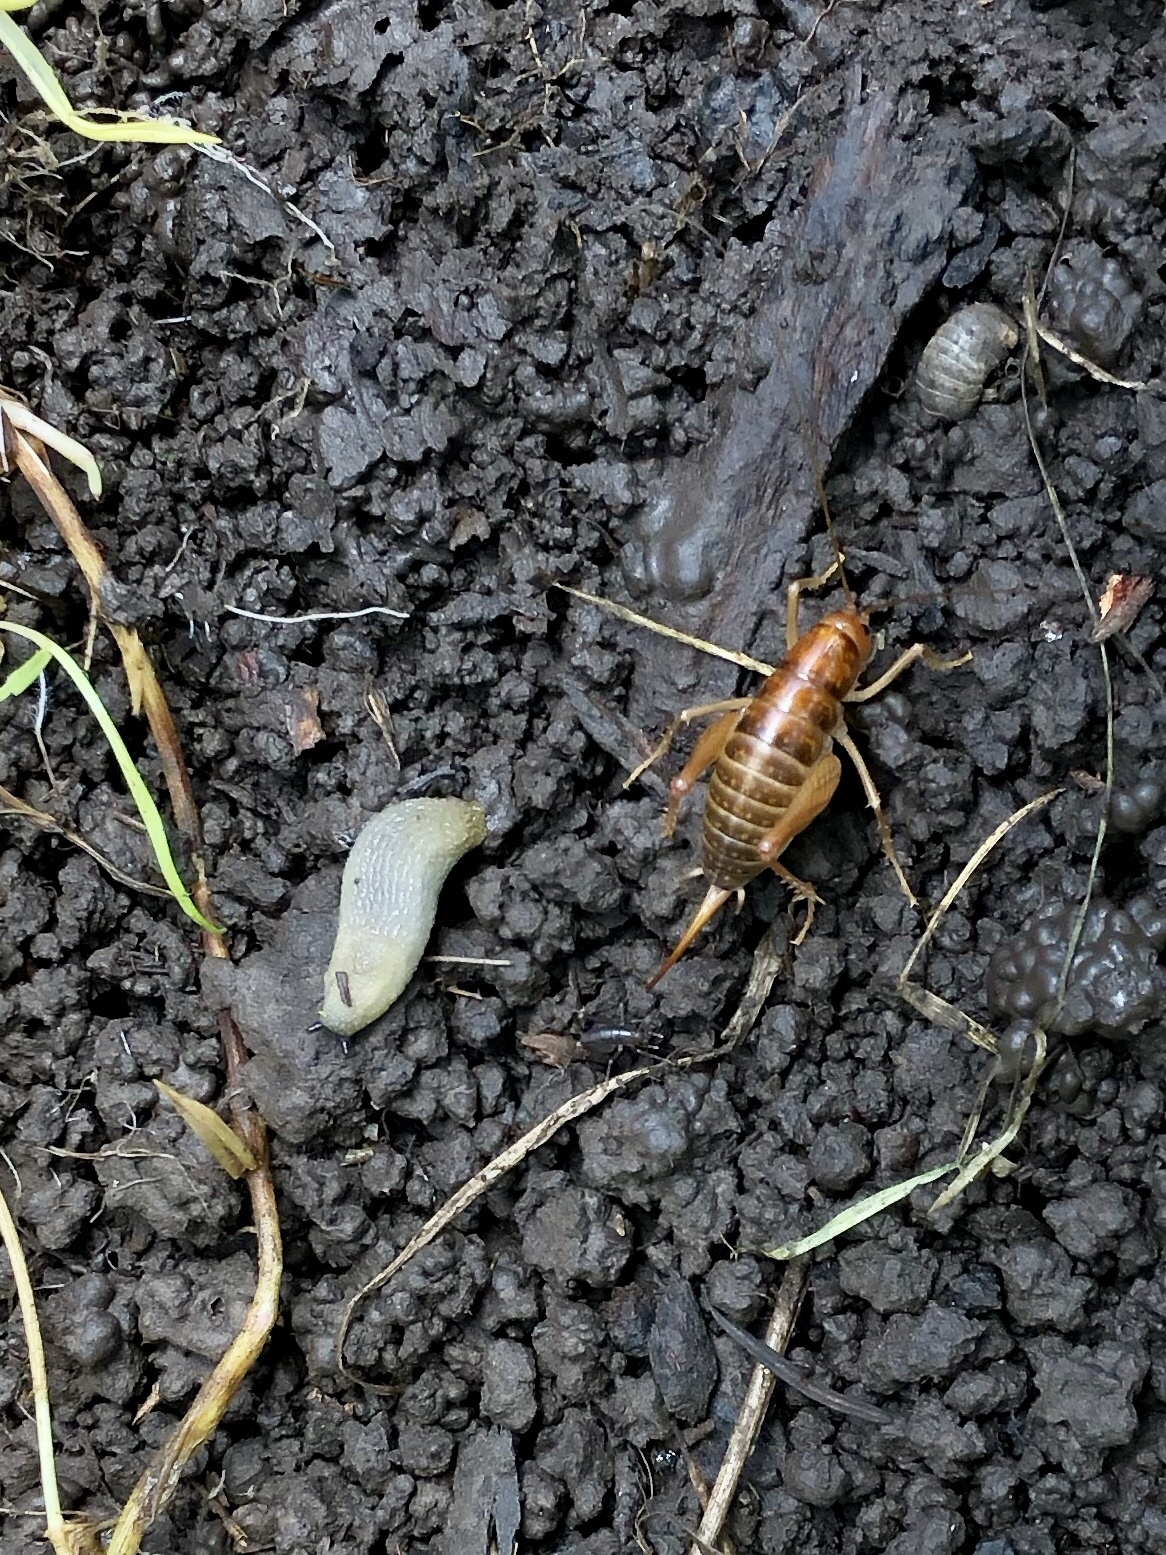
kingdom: Animalia
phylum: Mollusca
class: Gastropoda
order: Stylommatophora
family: Arionidae
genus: Arion
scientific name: Arion intermedius
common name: Hedgehog slug
